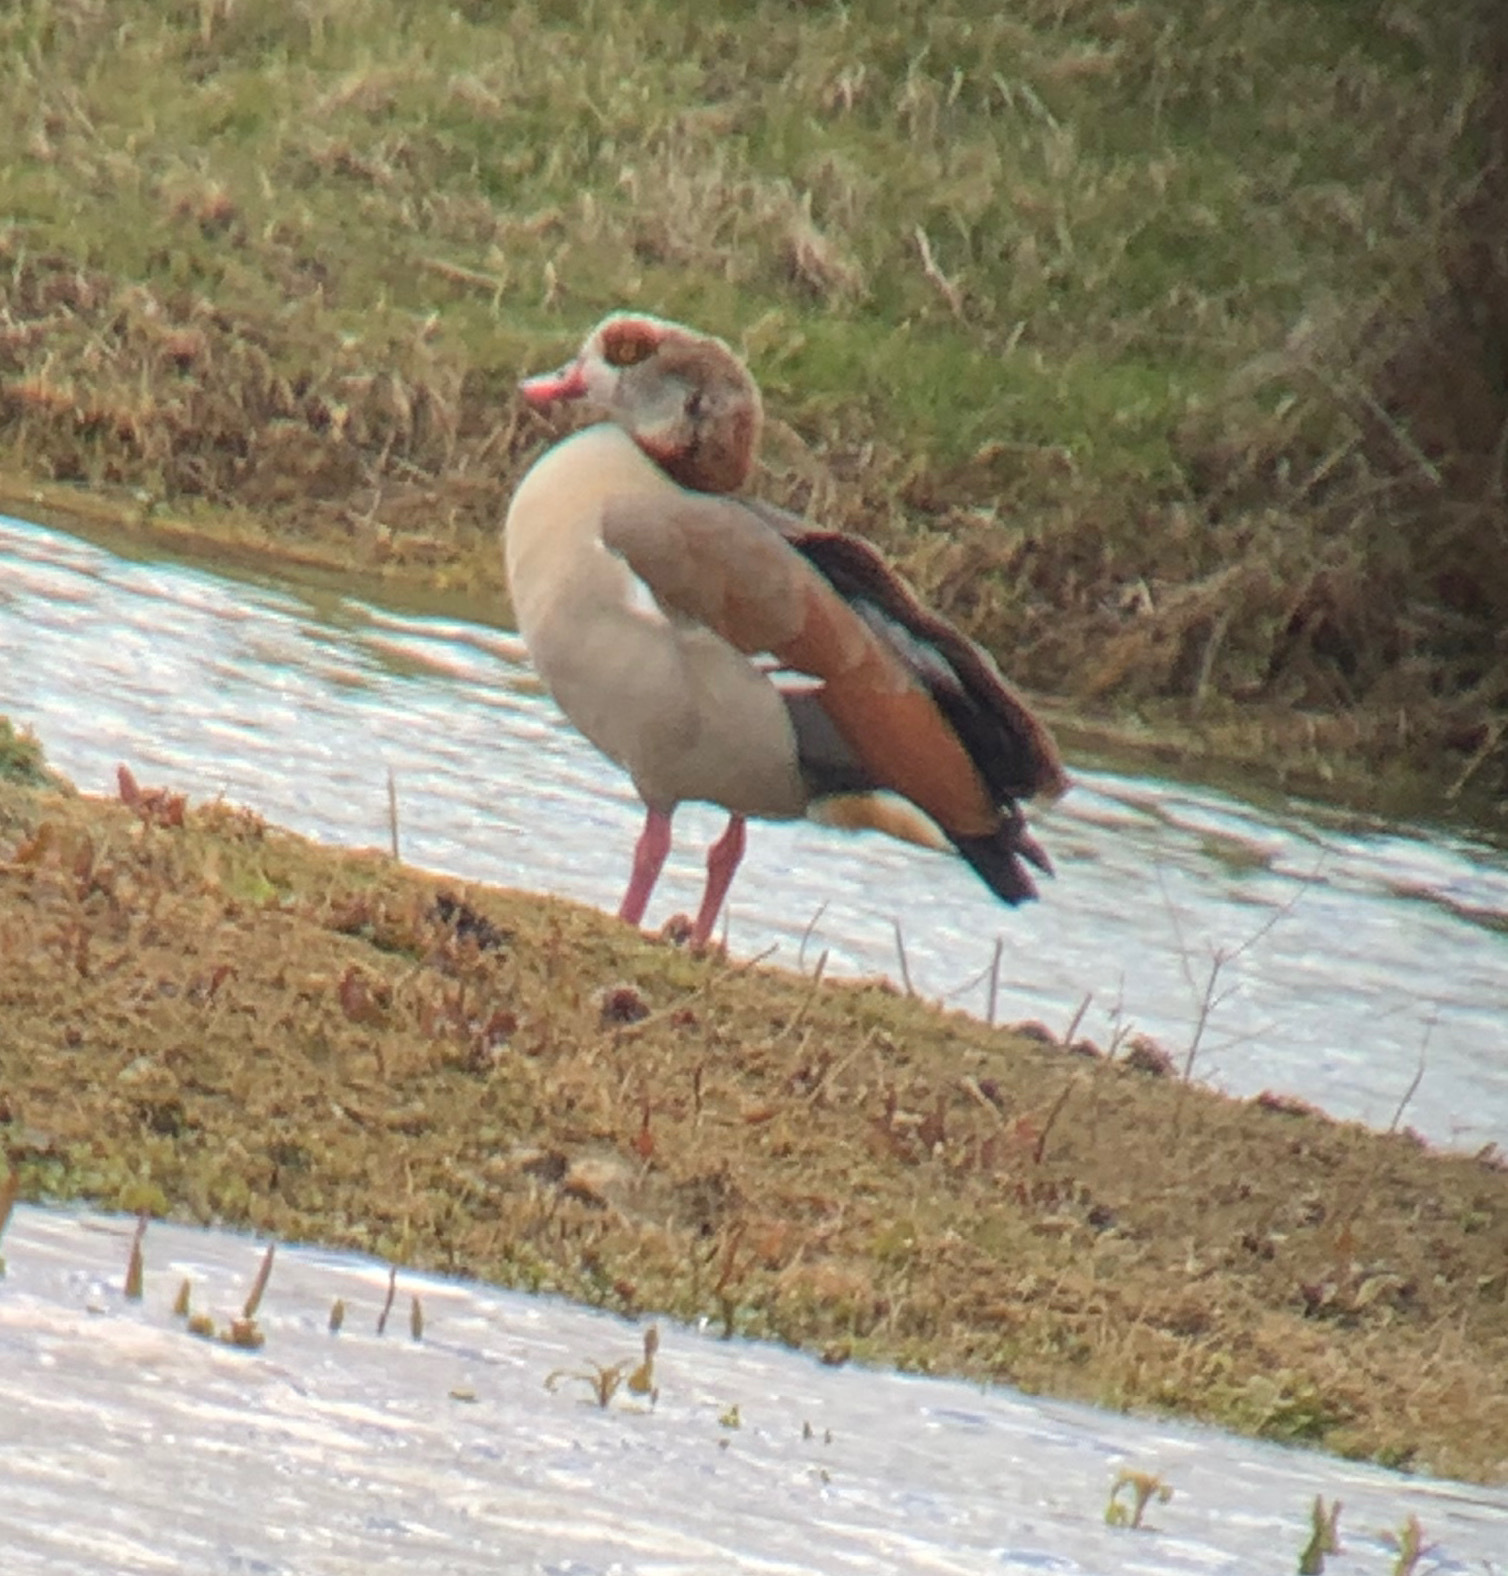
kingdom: Animalia
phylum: Chordata
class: Aves
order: Anseriformes
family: Anatidae
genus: Alopochen
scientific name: Alopochen aegyptiaca
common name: Egyptian goose
